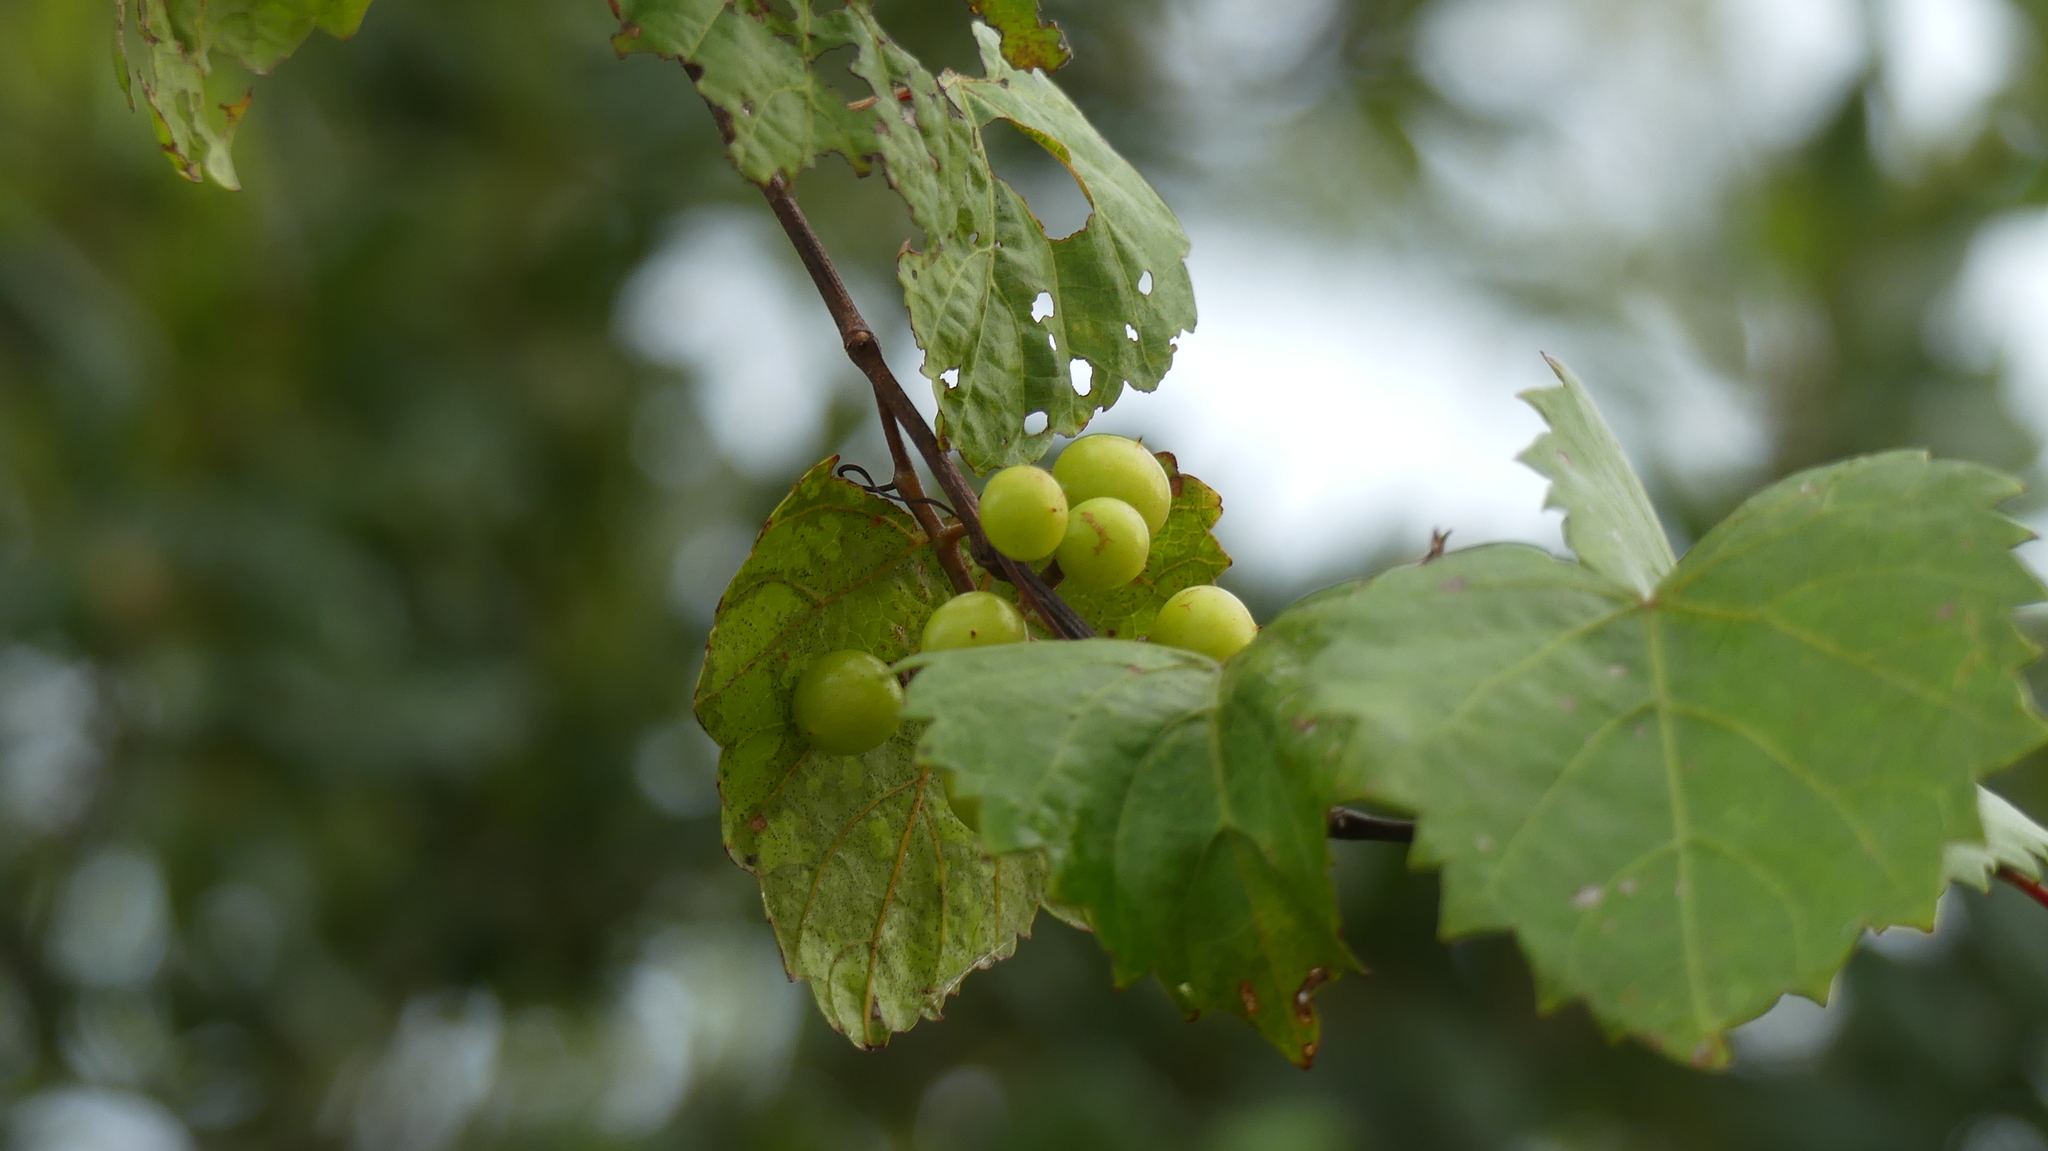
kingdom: Plantae
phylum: Tracheophyta
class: Magnoliopsida
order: Vitales
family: Vitaceae
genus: Vitis
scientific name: Vitis rotundifolia
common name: Muscadine grape
